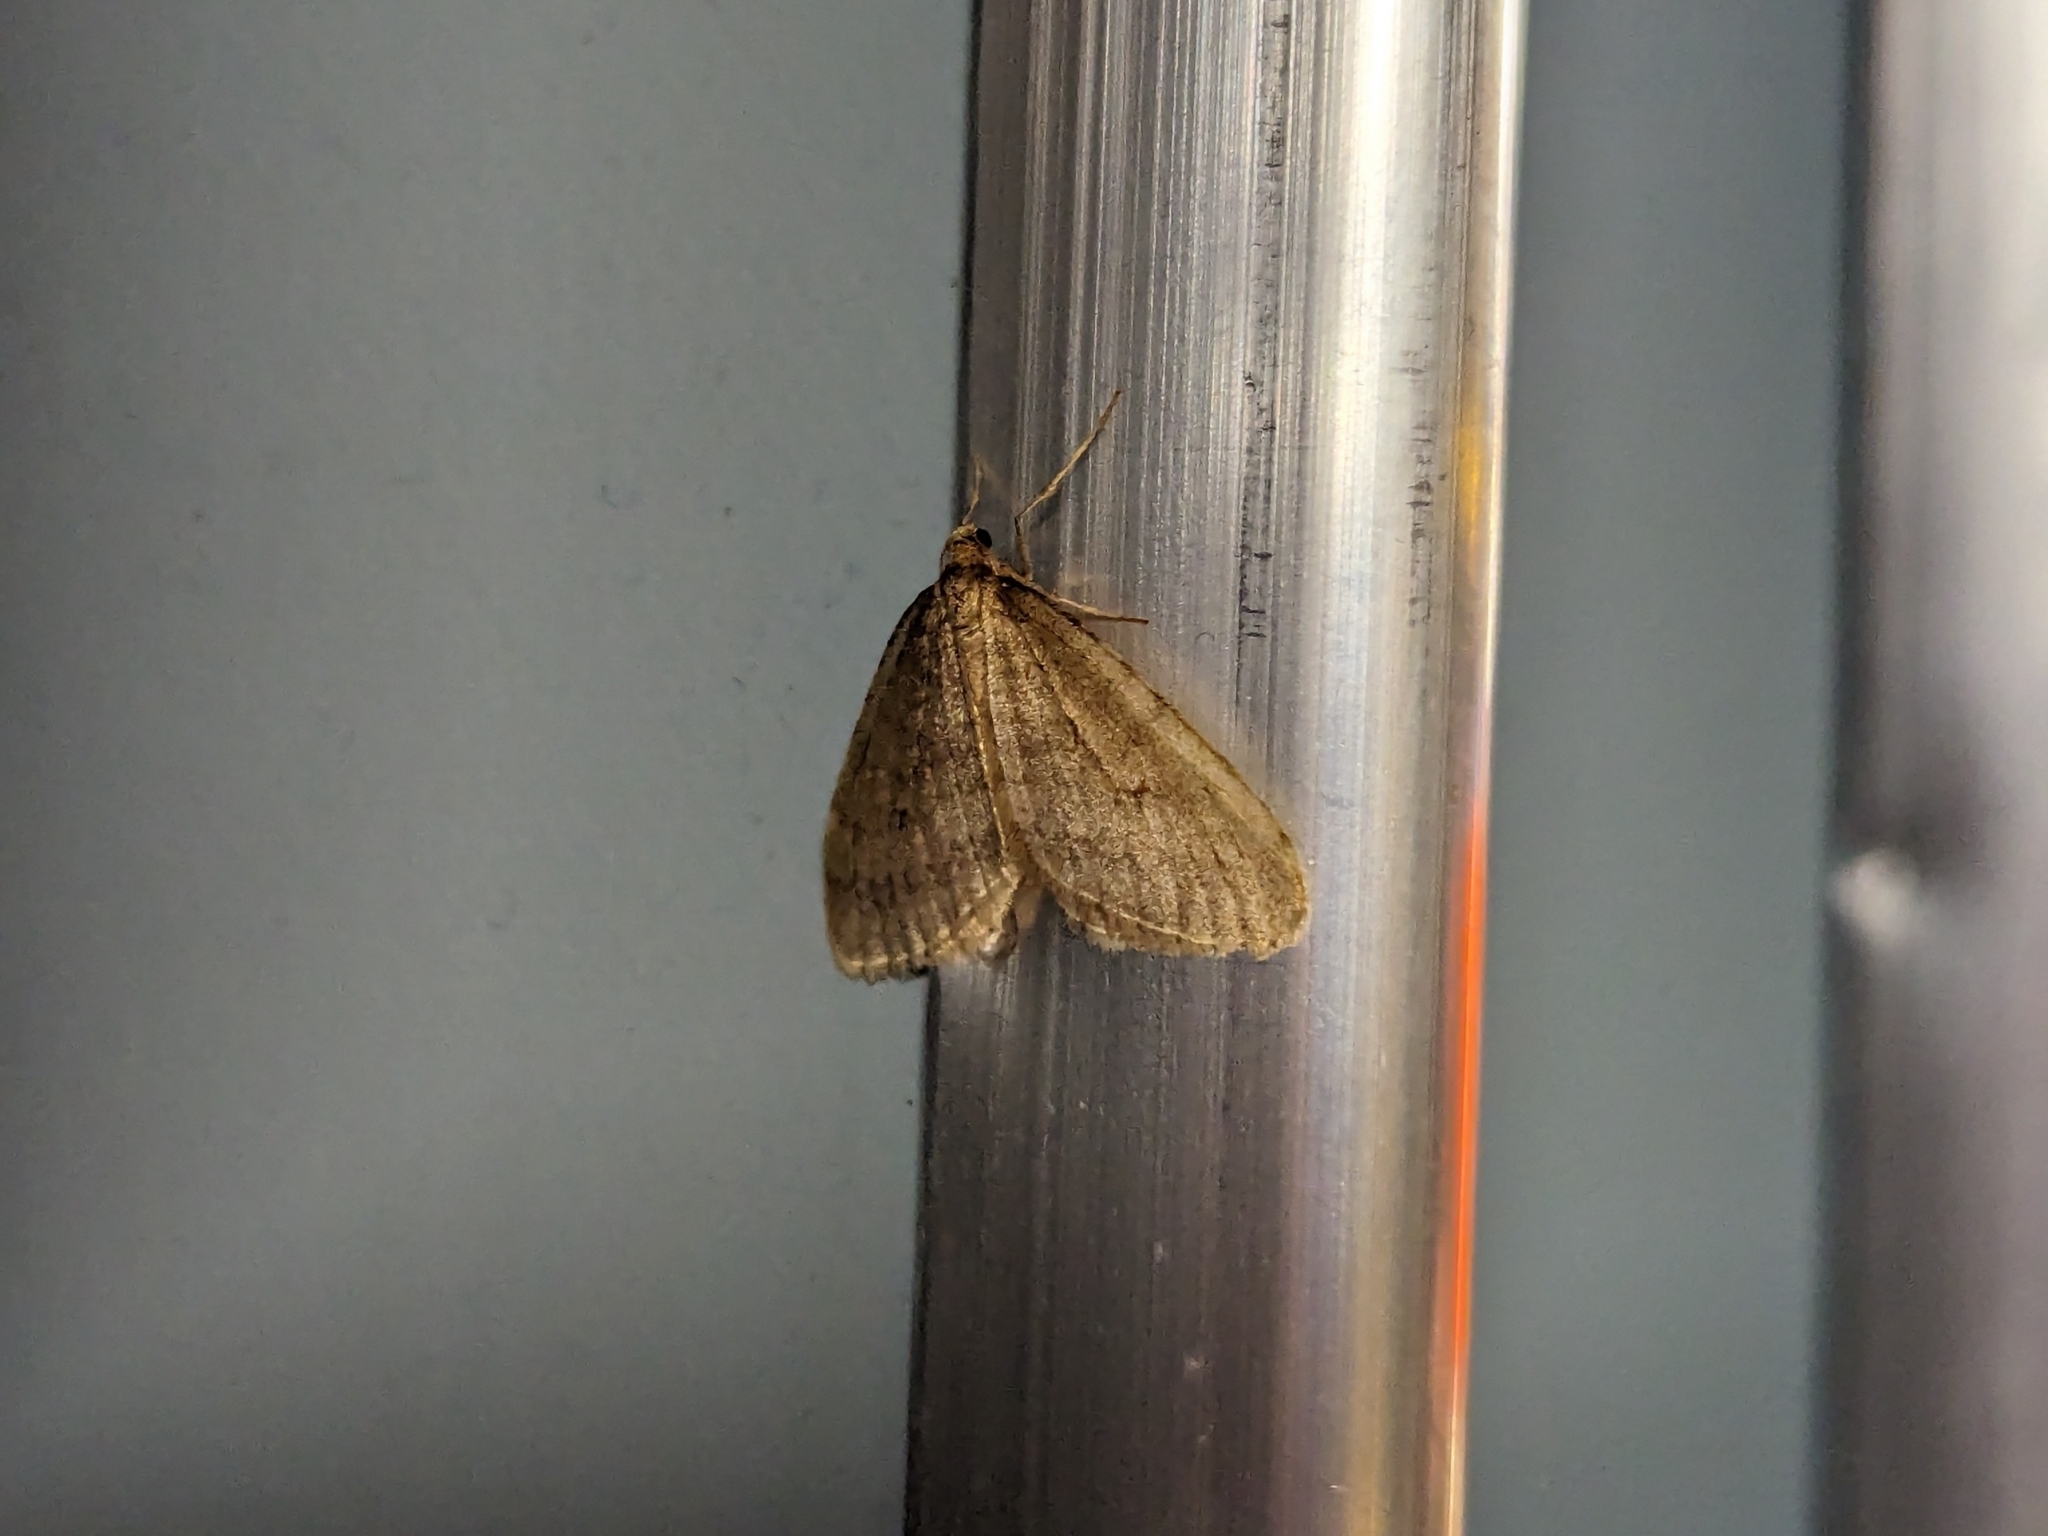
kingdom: Animalia
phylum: Arthropoda
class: Insecta
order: Lepidoptera
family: Geometridae
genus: Operophtera
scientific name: Operophtera brumata
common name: Winter moth
